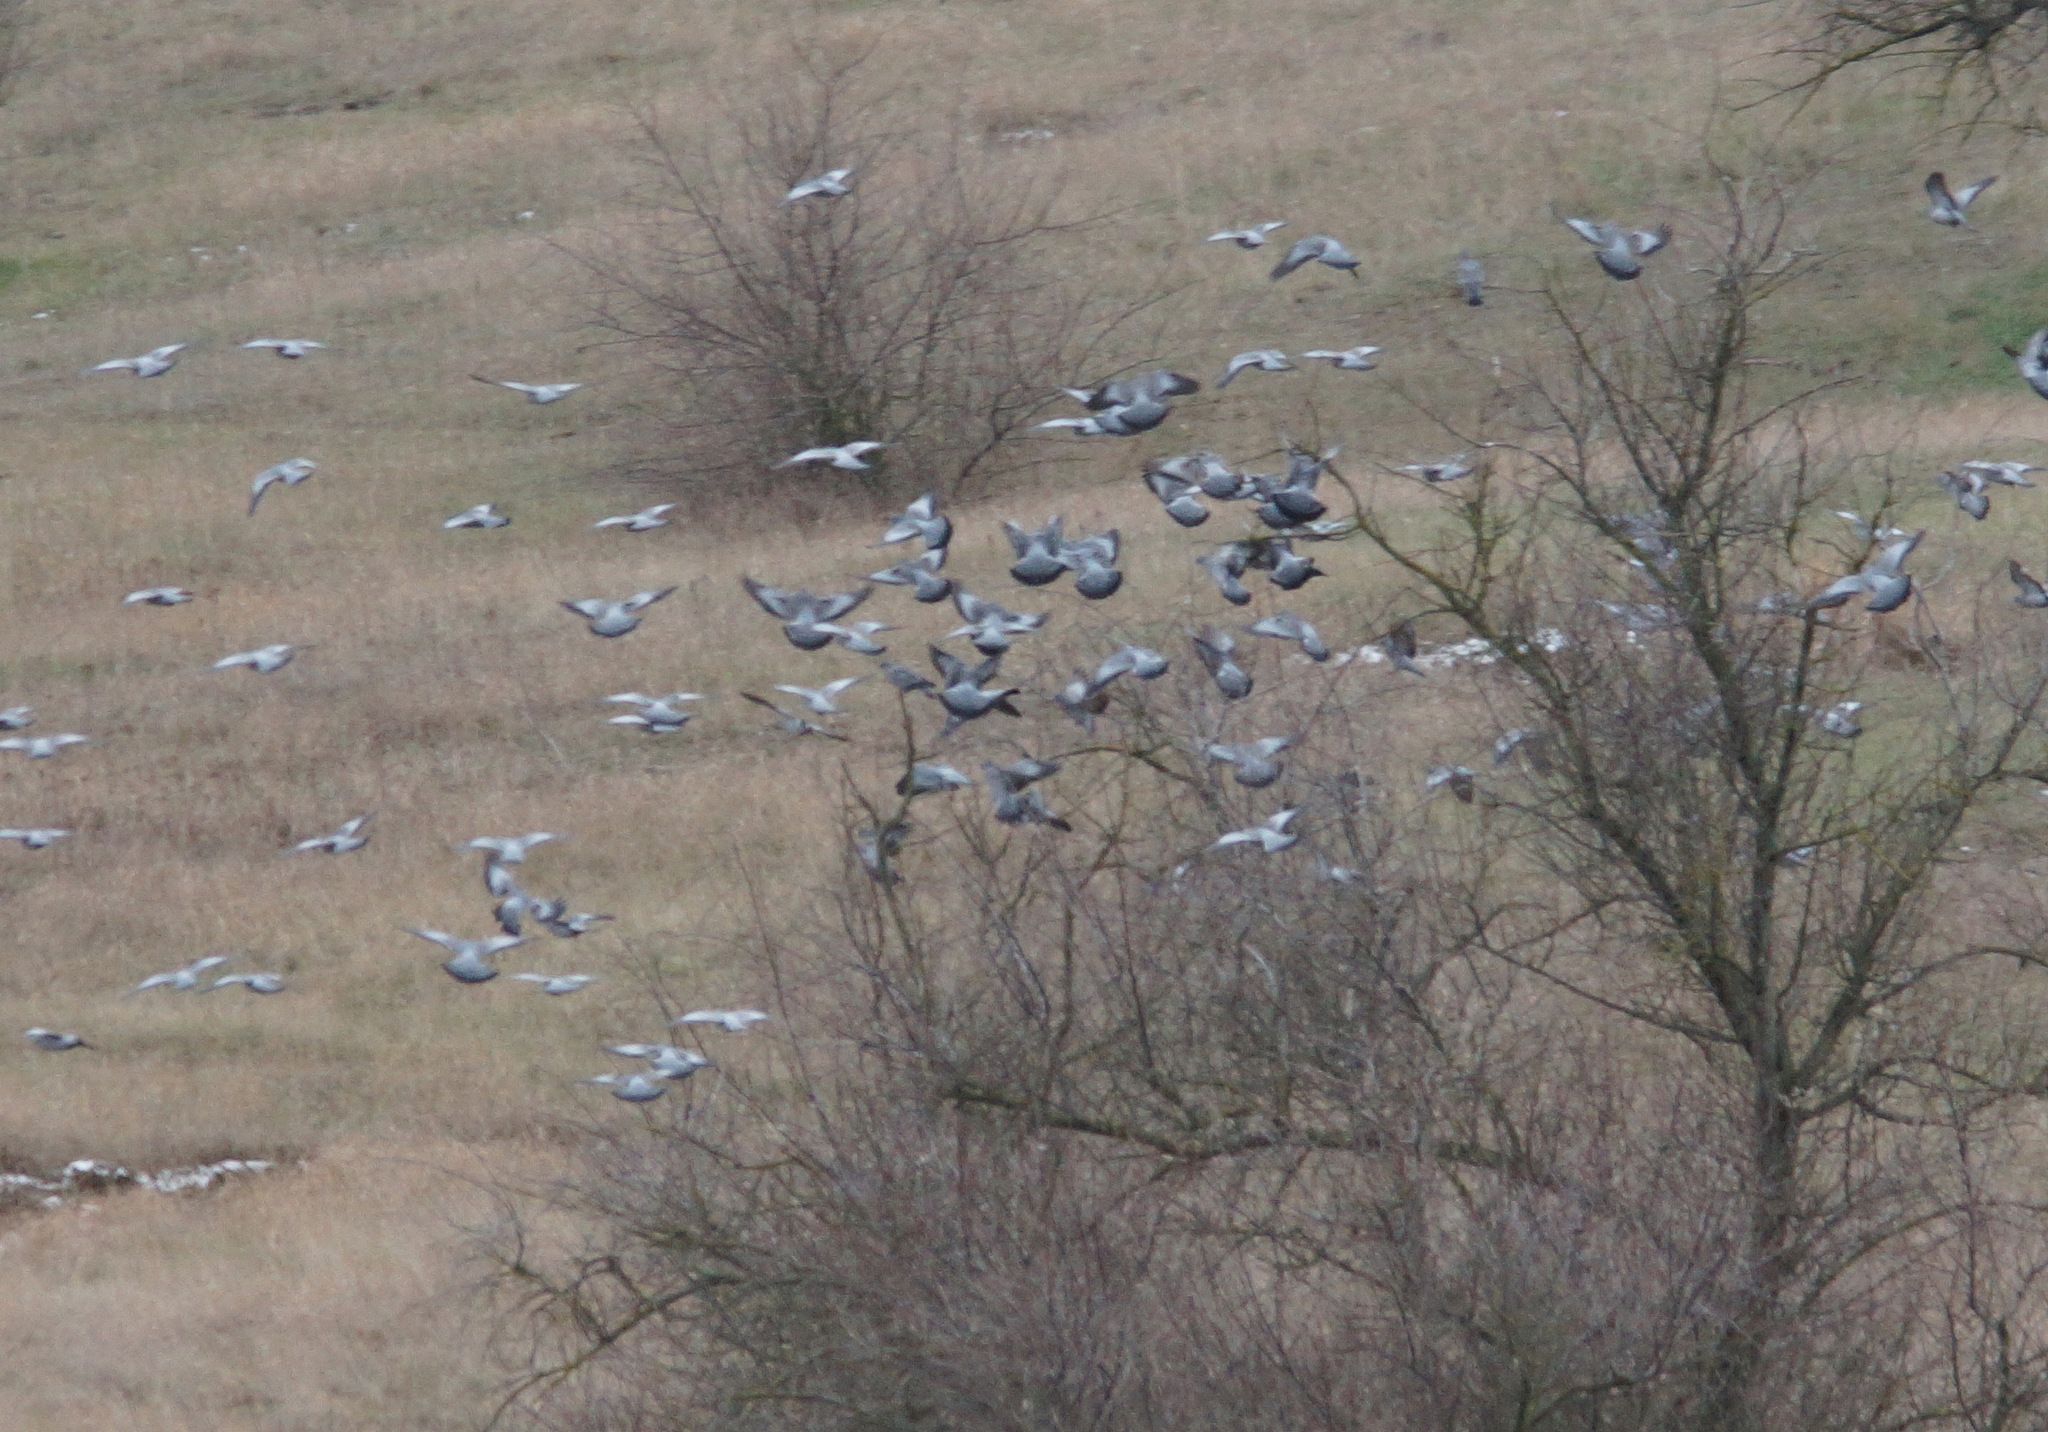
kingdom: Animalia
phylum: Chordata
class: Aves
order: Columbiformes
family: Columbidae
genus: Columba
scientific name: Columba oenas
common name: Stock dove
